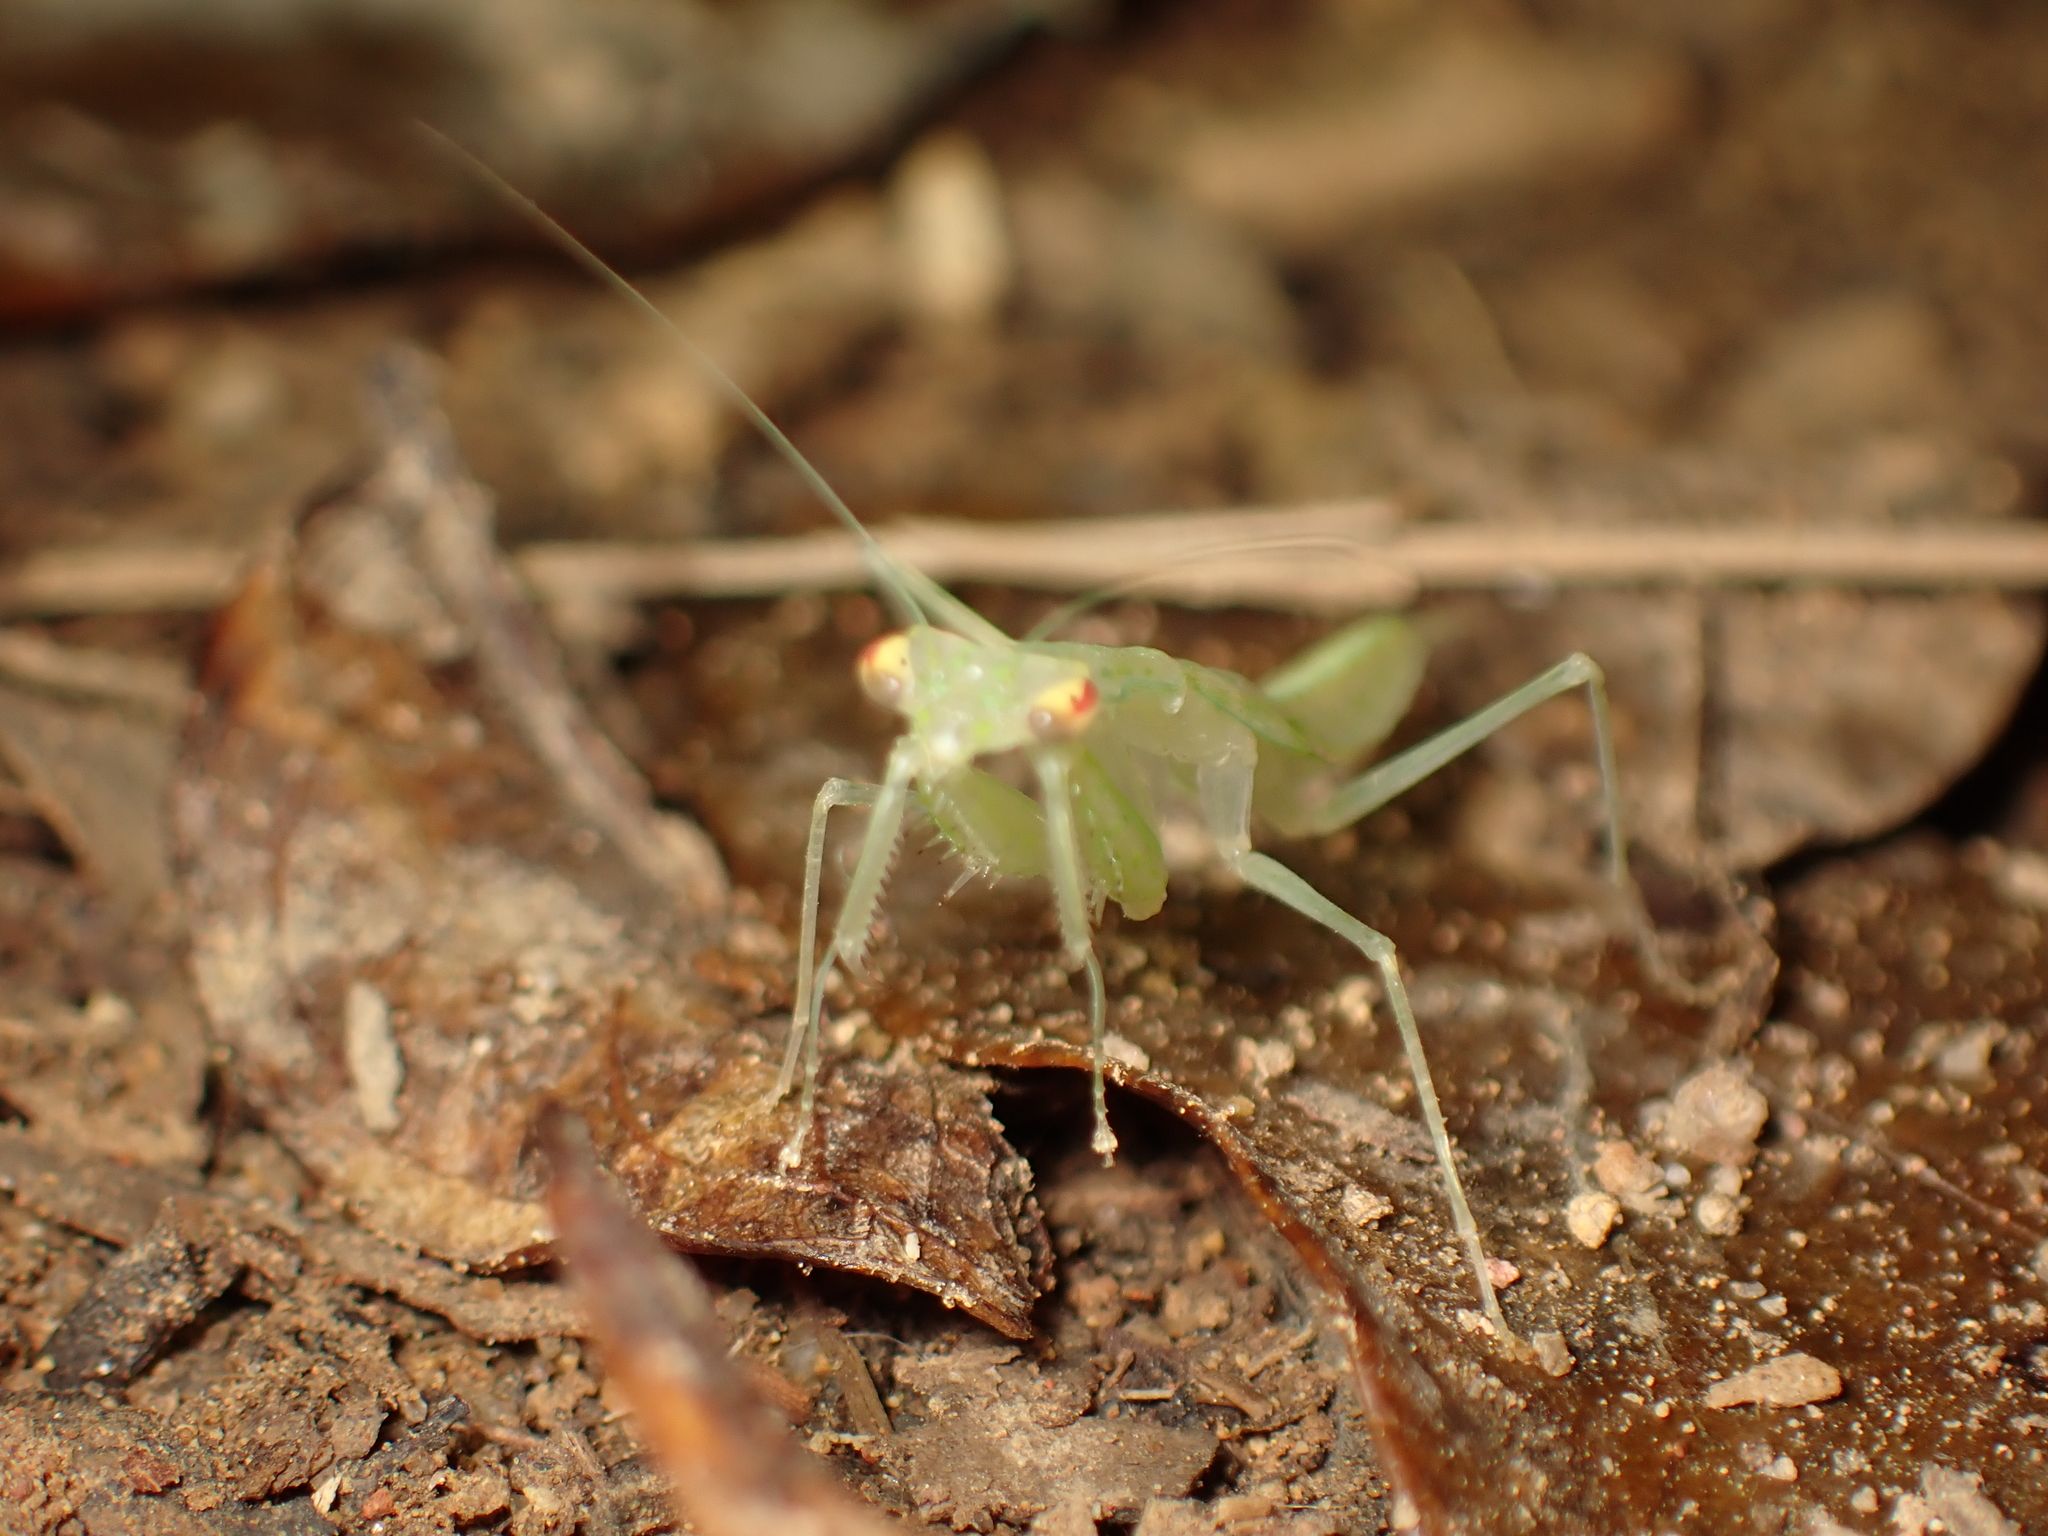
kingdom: Animalia
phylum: Arthropoda
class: Insecta
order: Mantodea
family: Nanomantidae
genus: Sinomantis
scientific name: Sinomantis denticulata
